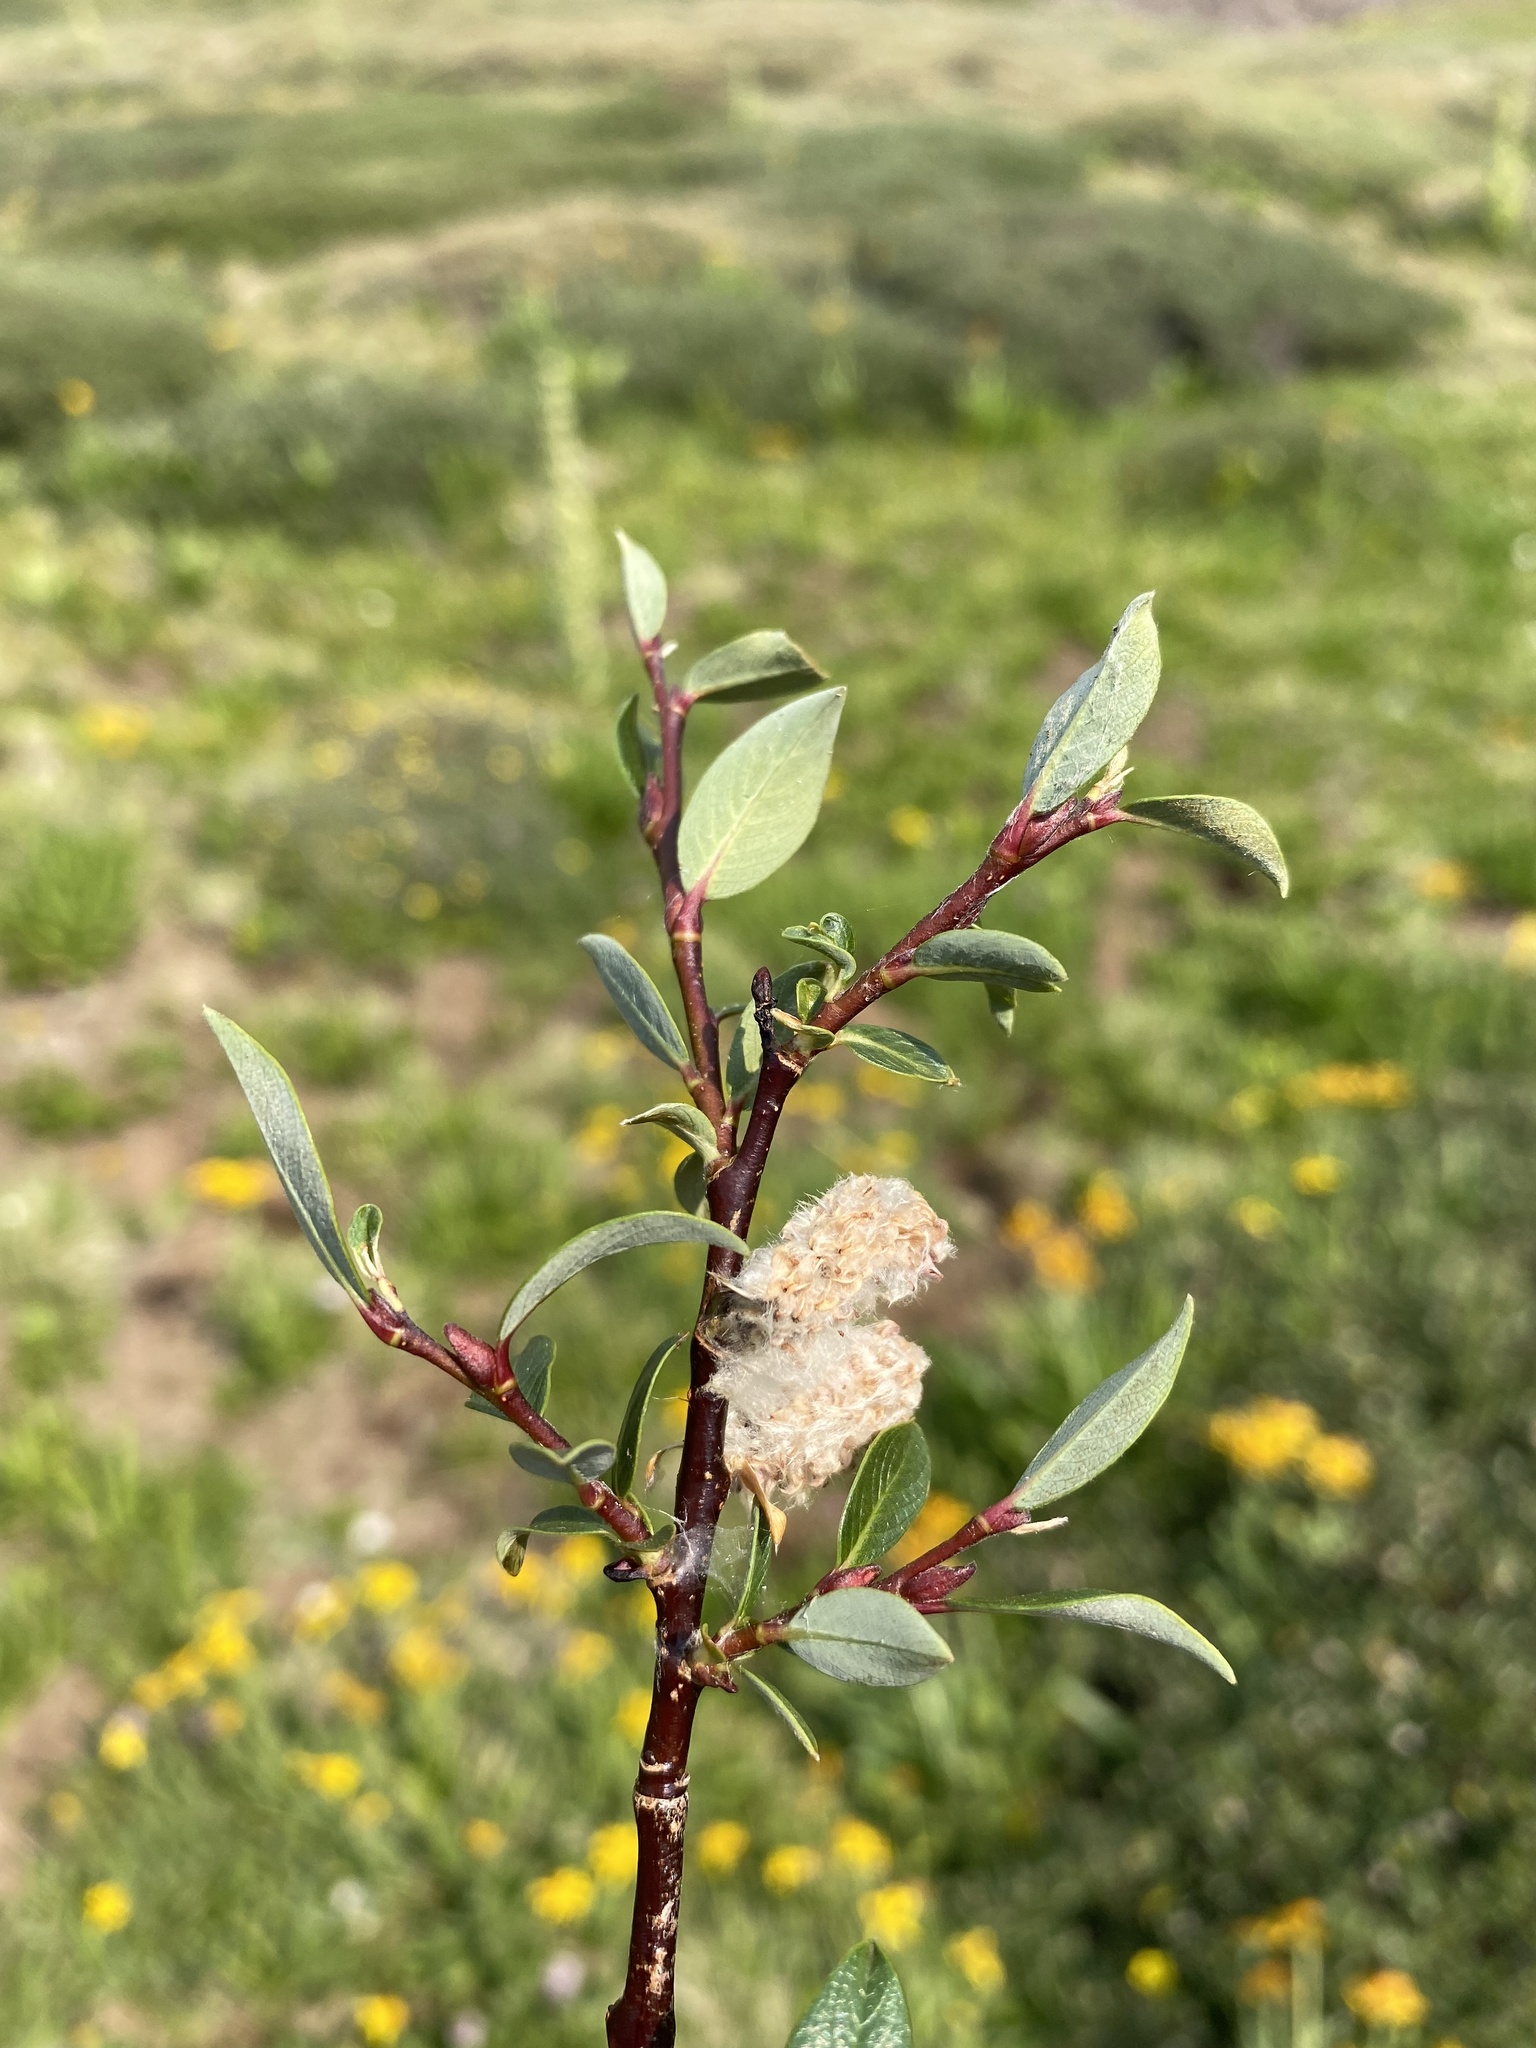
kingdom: Plantae
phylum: Tracheophyta
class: Magnoliopsida
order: Malpighiales
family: Salicaceae
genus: Salix
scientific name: Salix planifolia
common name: Mountain willow
